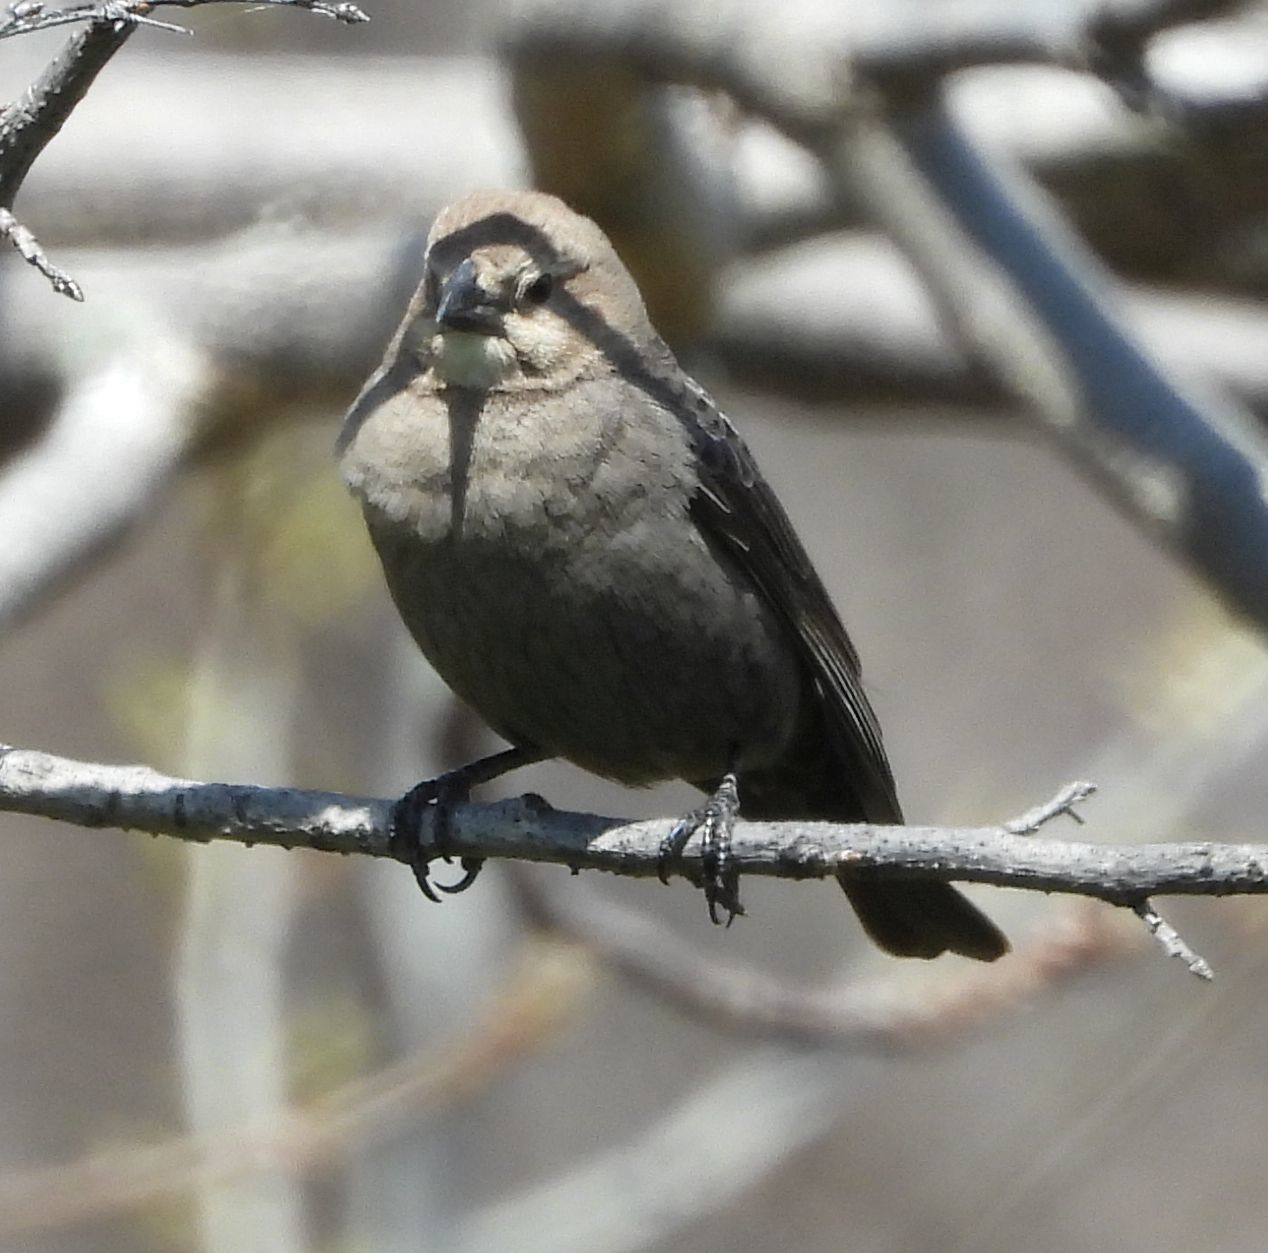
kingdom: Animalia
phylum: Chordata
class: Aves
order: Passeriformes
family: Icteridae
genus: Molothrus
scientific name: Molothrus ater
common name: Brown-headed cowbird
